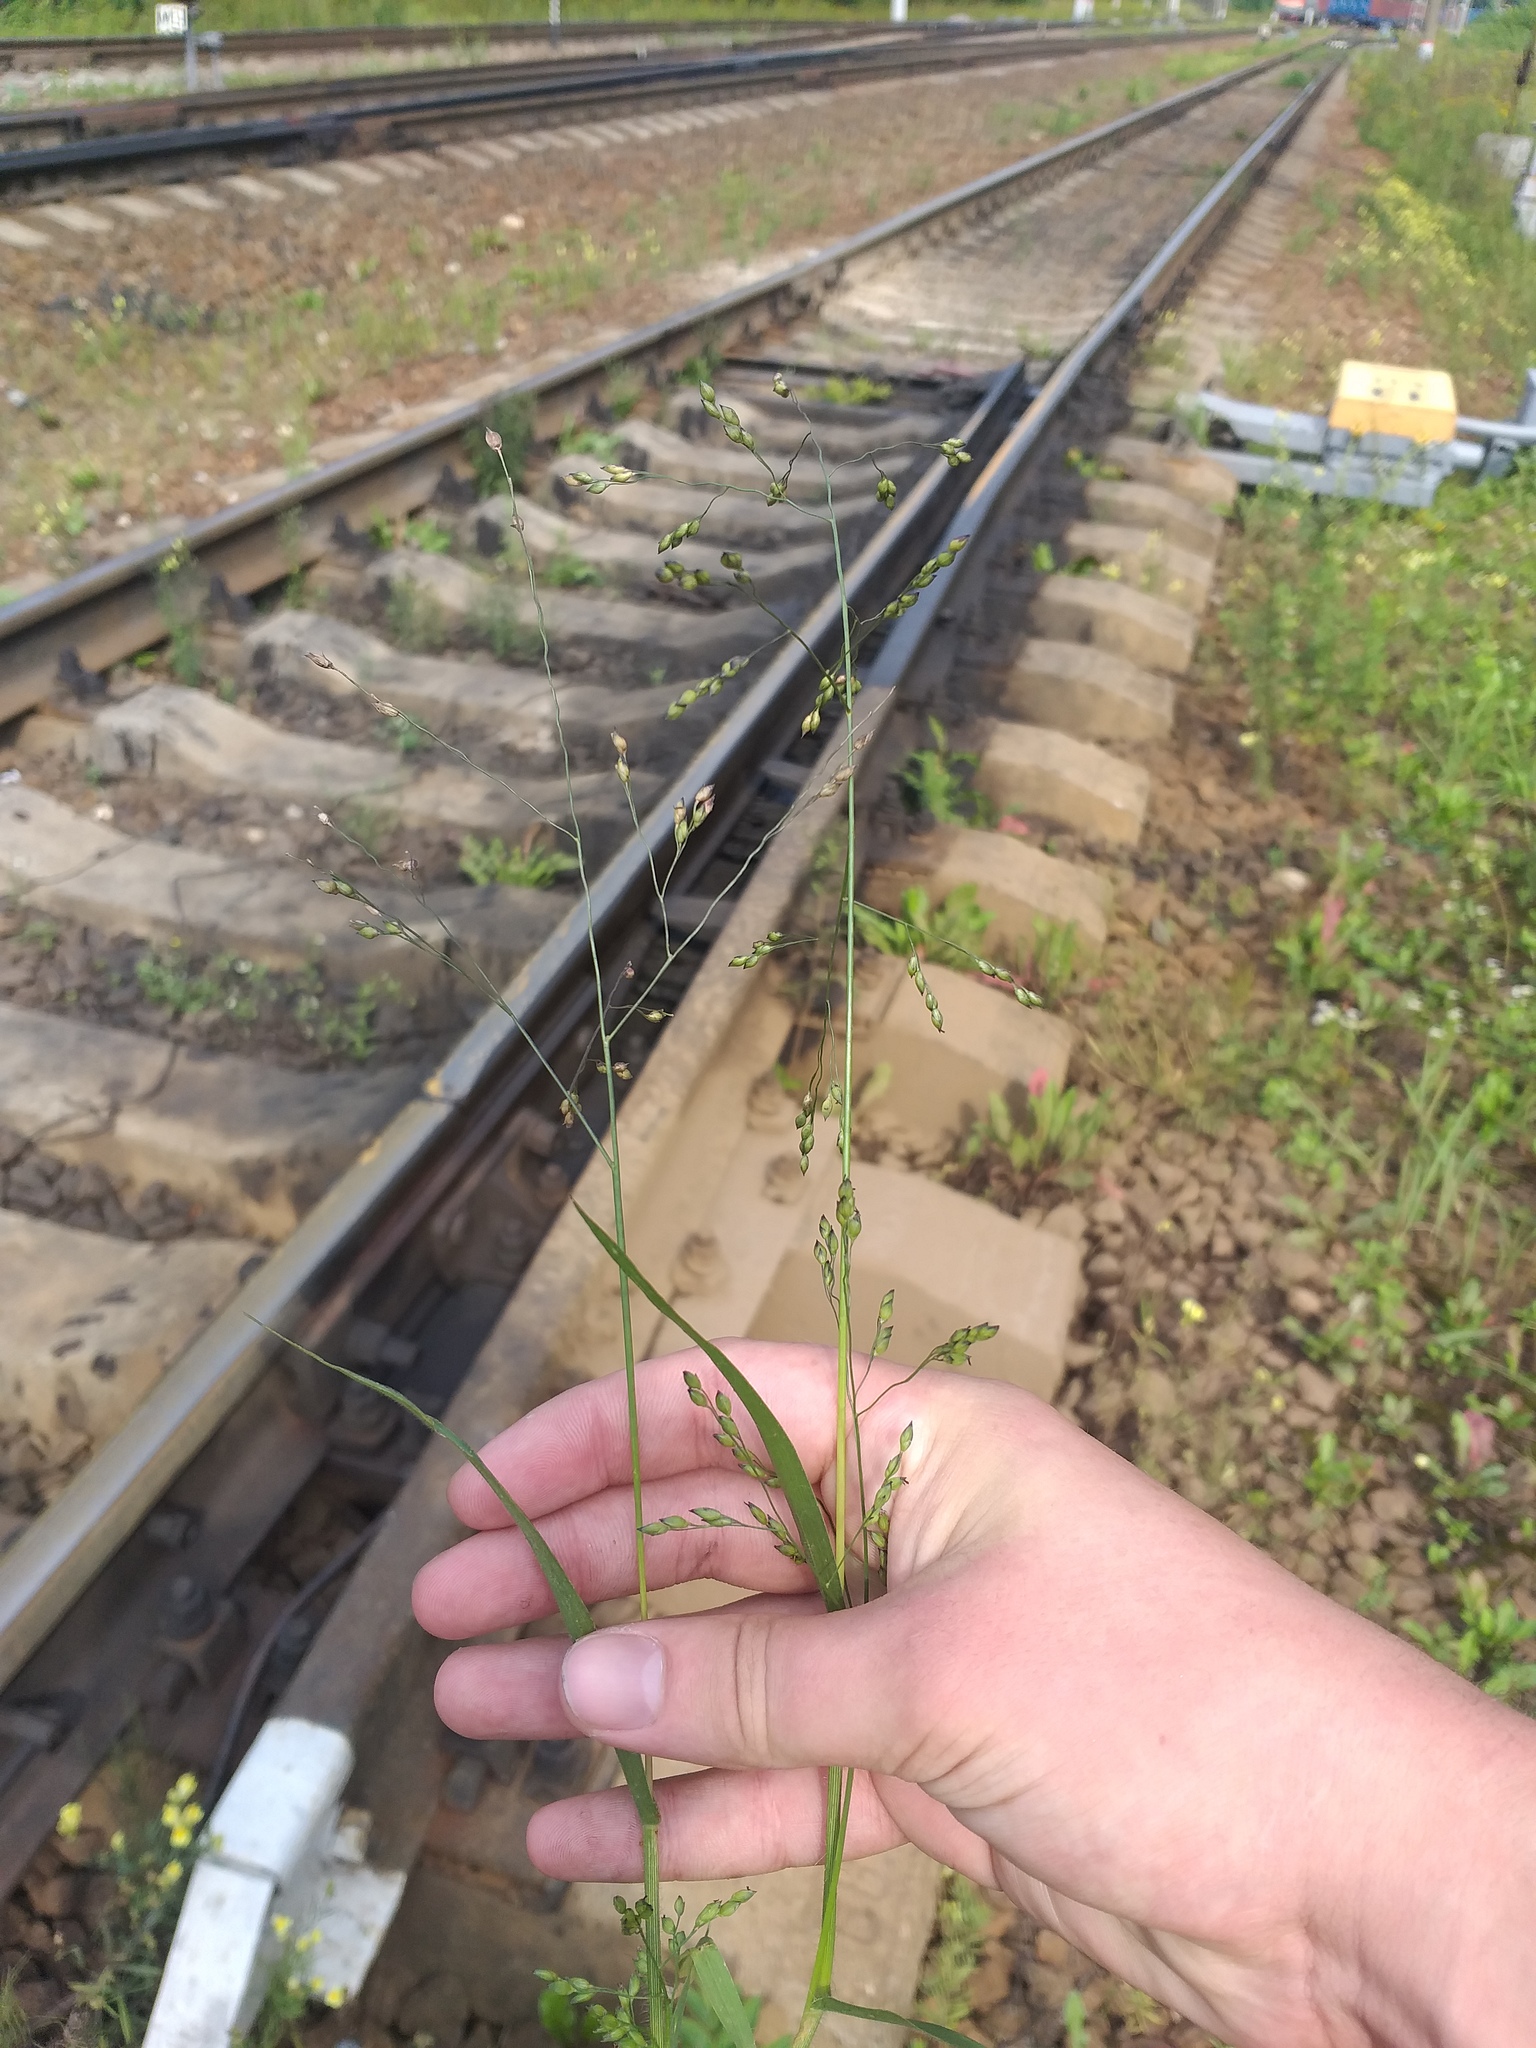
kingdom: Plantae
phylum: Tracheophyta
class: Liliopsida
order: Poales
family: Poaceae
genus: Panicum
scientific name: Panicum miliaceum
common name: Common millet
